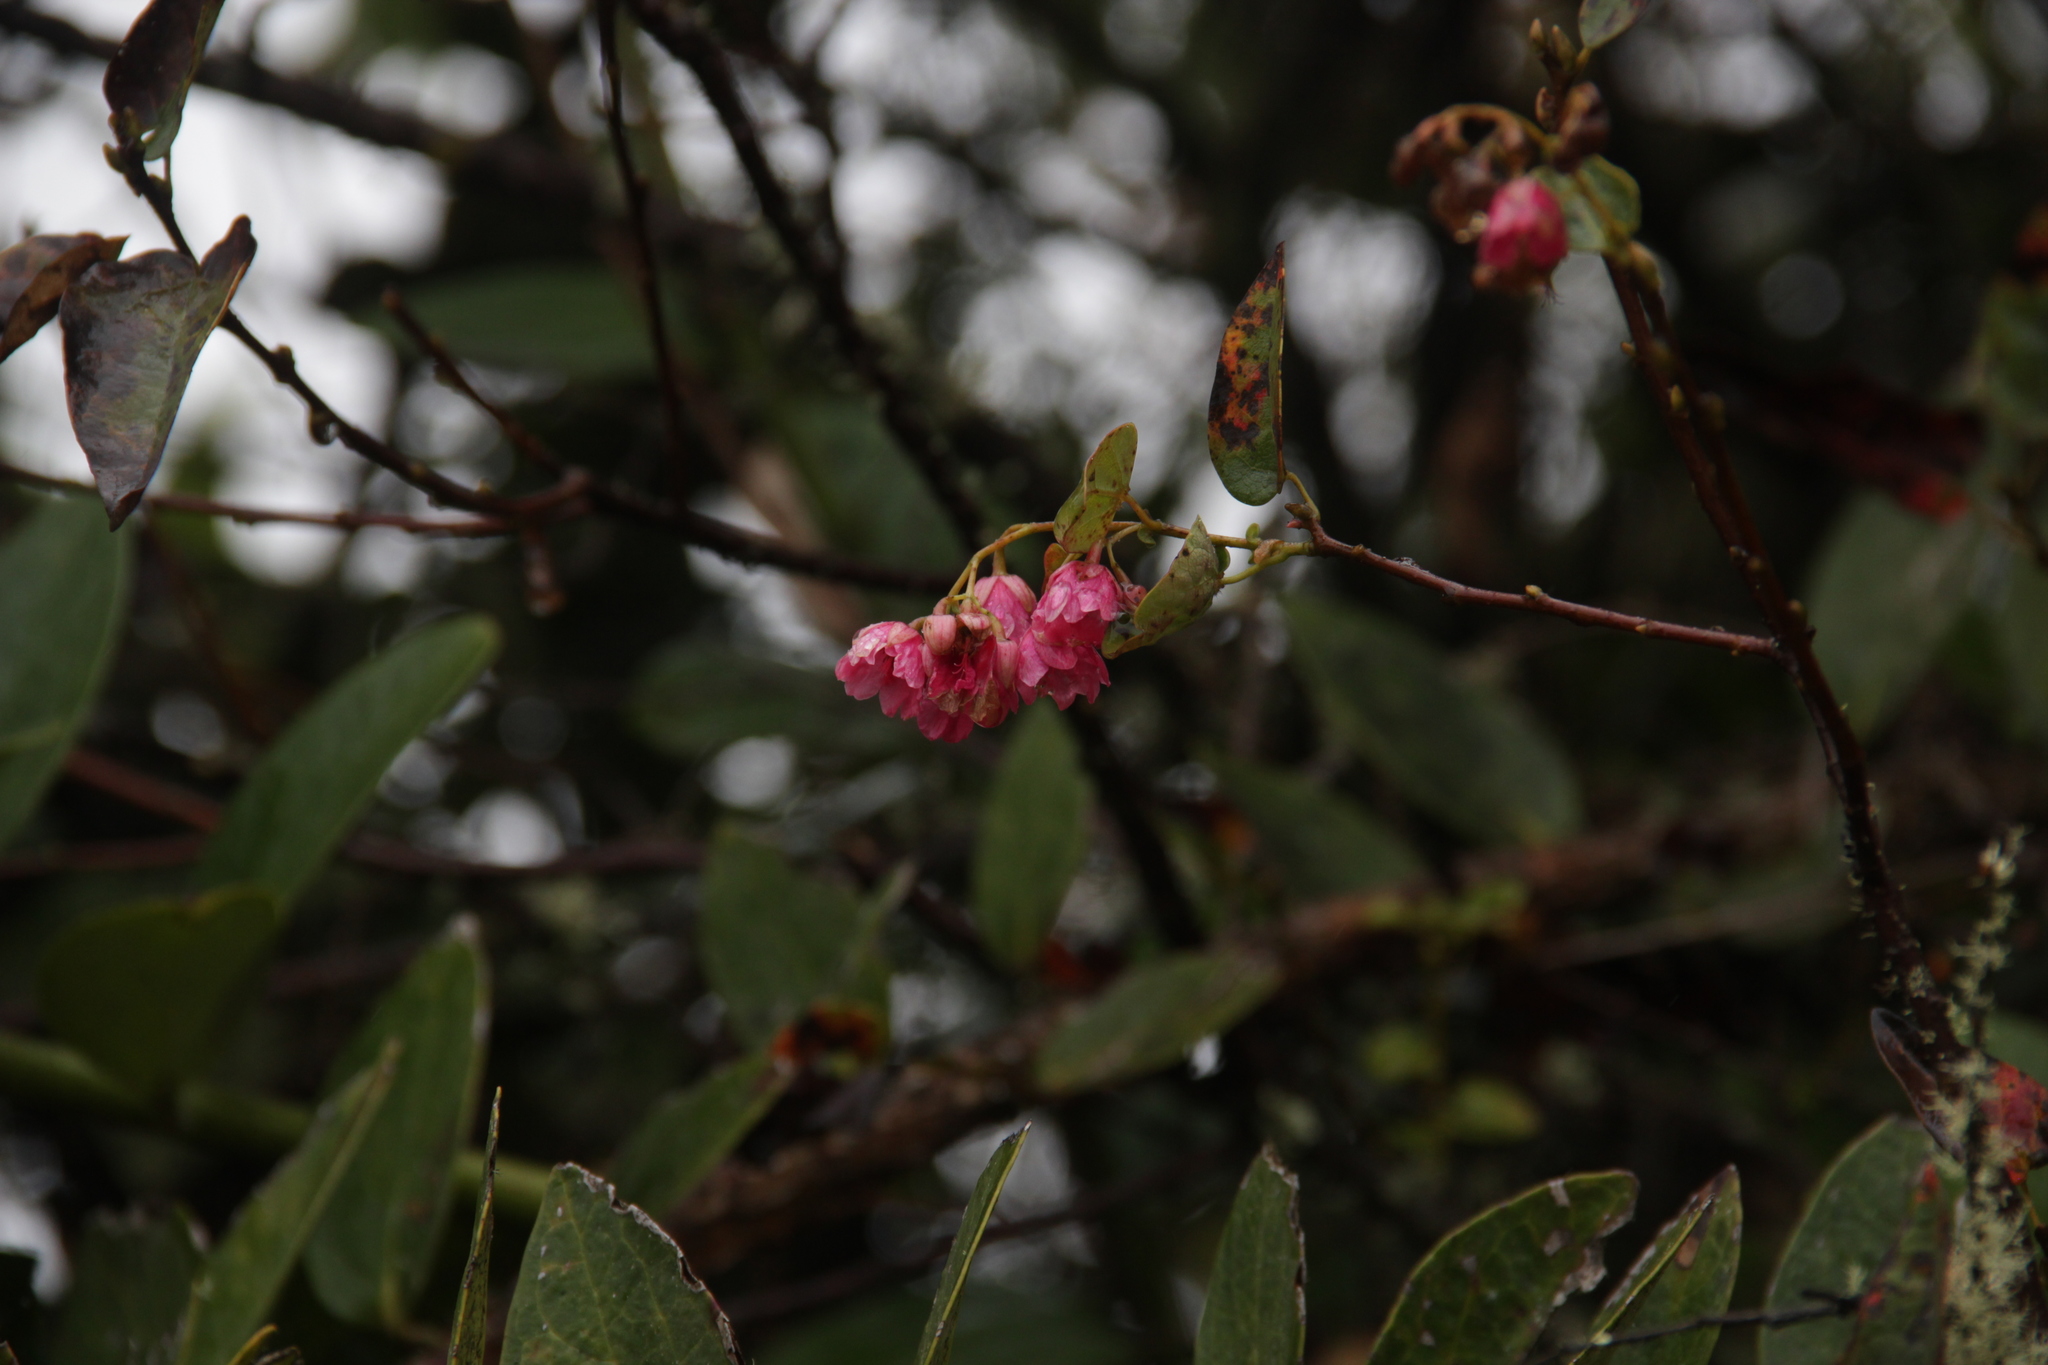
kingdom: Plantae
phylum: Tracheophyta
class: Magnoliopsida
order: Oxalidales
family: Elaeocarpaceae
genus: Vallea
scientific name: Vallea stipularis
